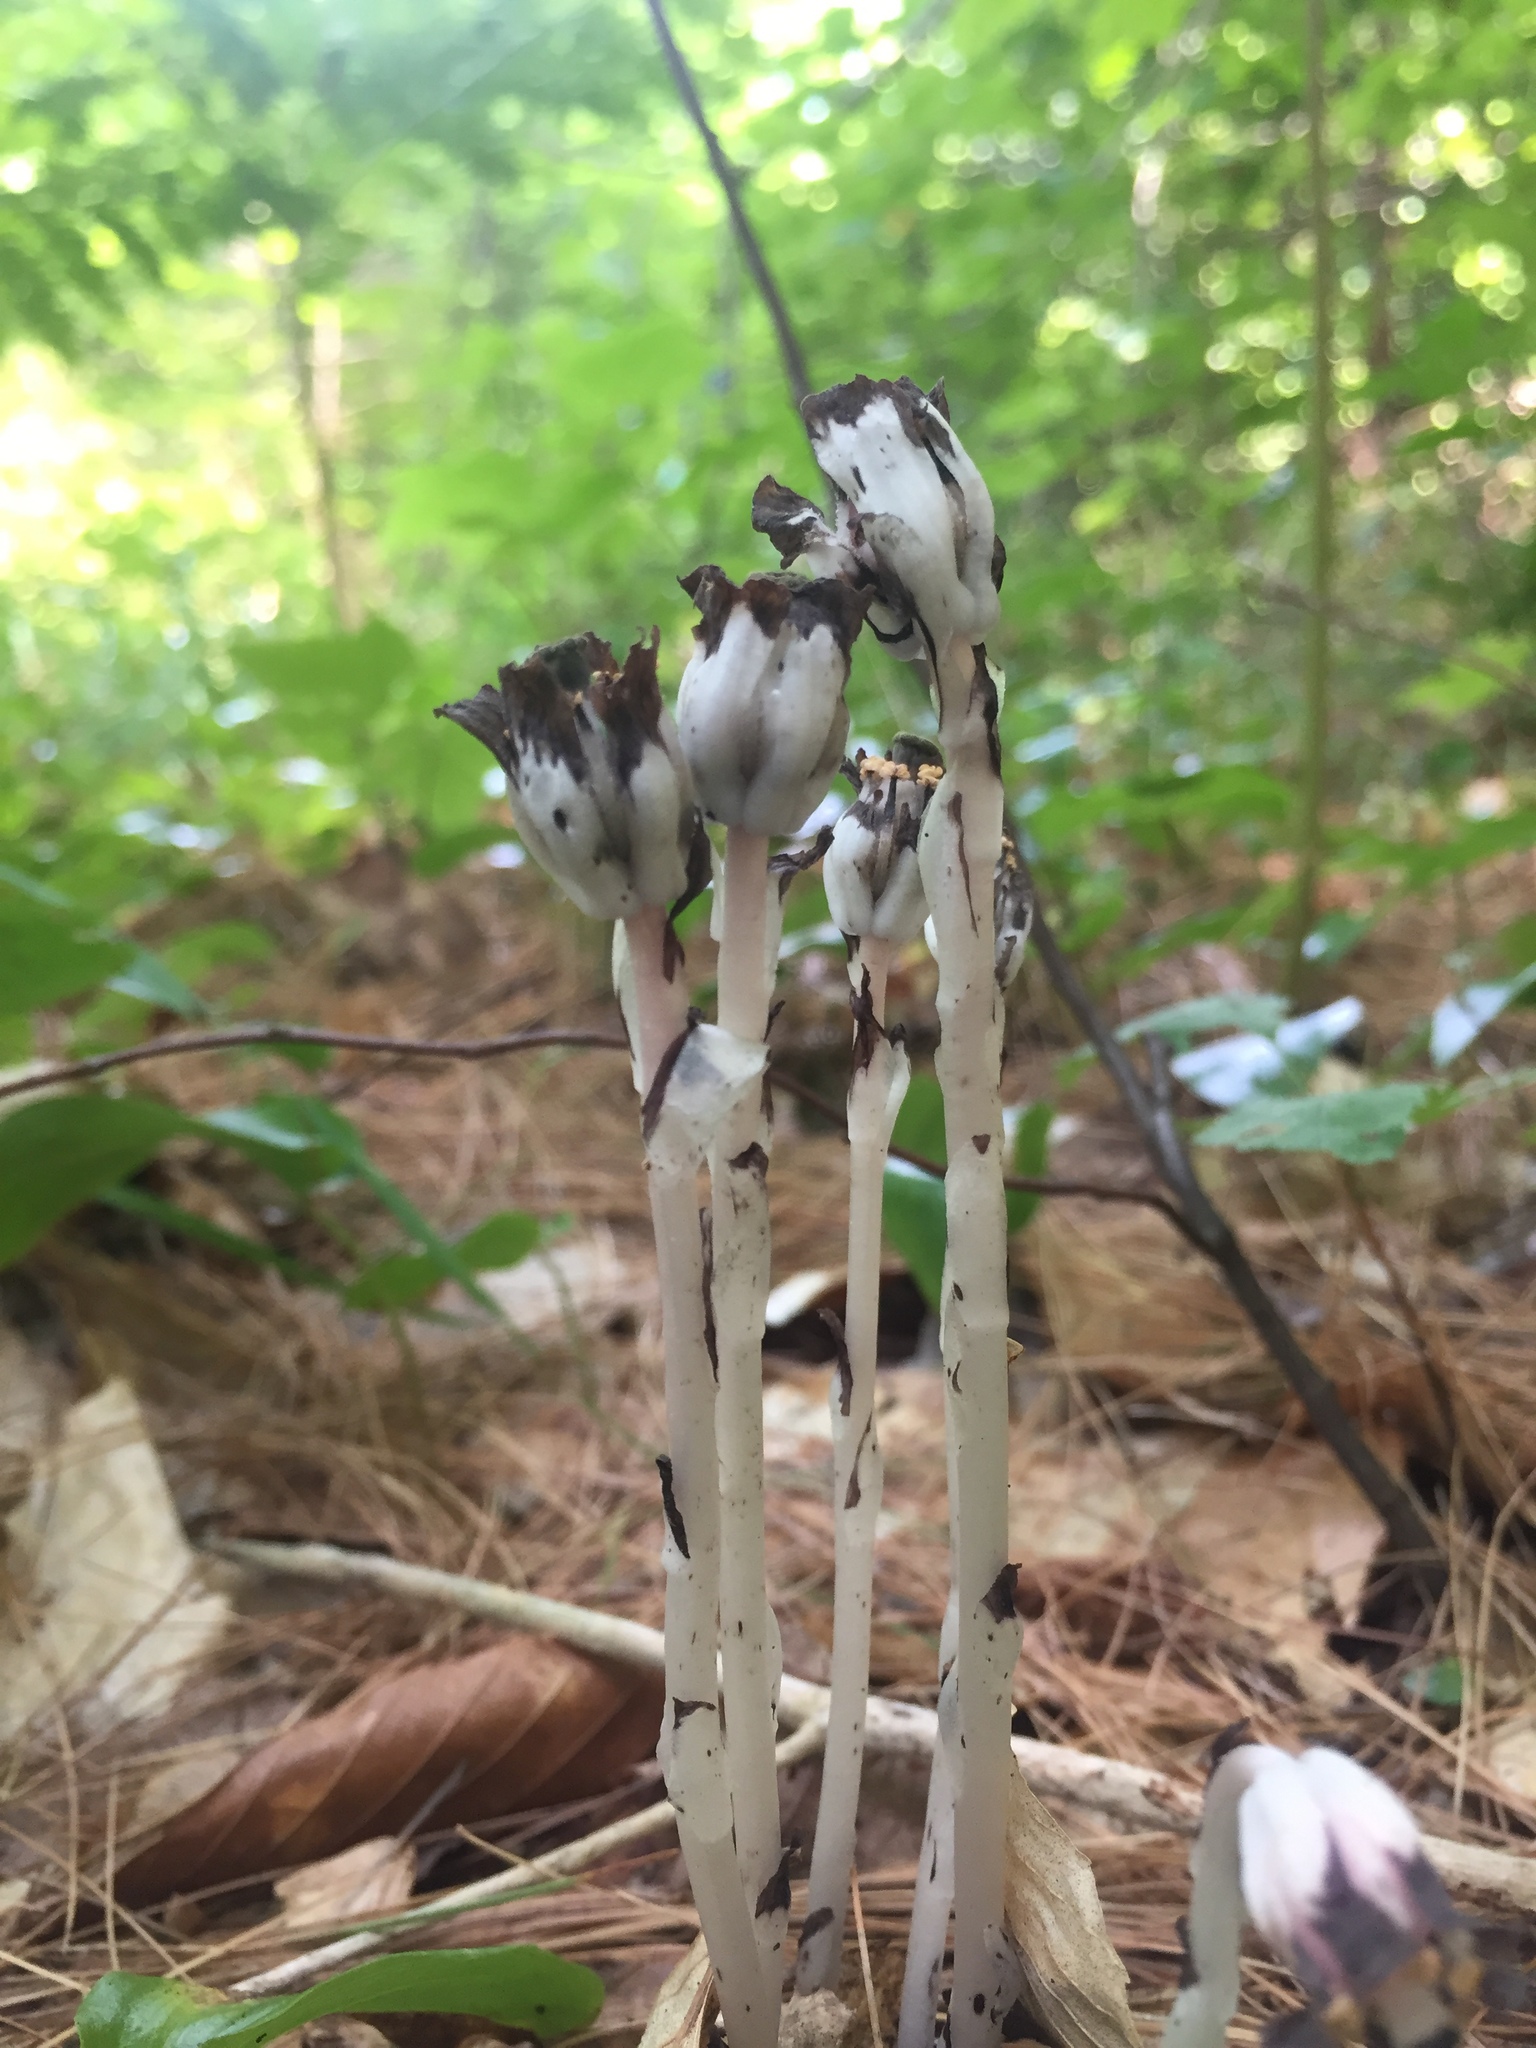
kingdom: Plantae
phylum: Tracheophyta
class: Magnoliopsida
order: Ericales
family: Ericaceae
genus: Monotropa
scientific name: Monotropa uniflora
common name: Convulsion root
